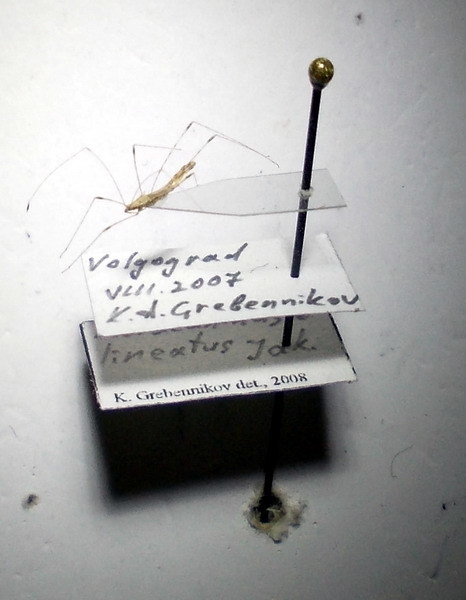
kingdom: Animalia
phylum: Arthropoda
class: Insecta
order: Hemiptera
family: Berytidae
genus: Metacanthus
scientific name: Metacanthus lineatus
